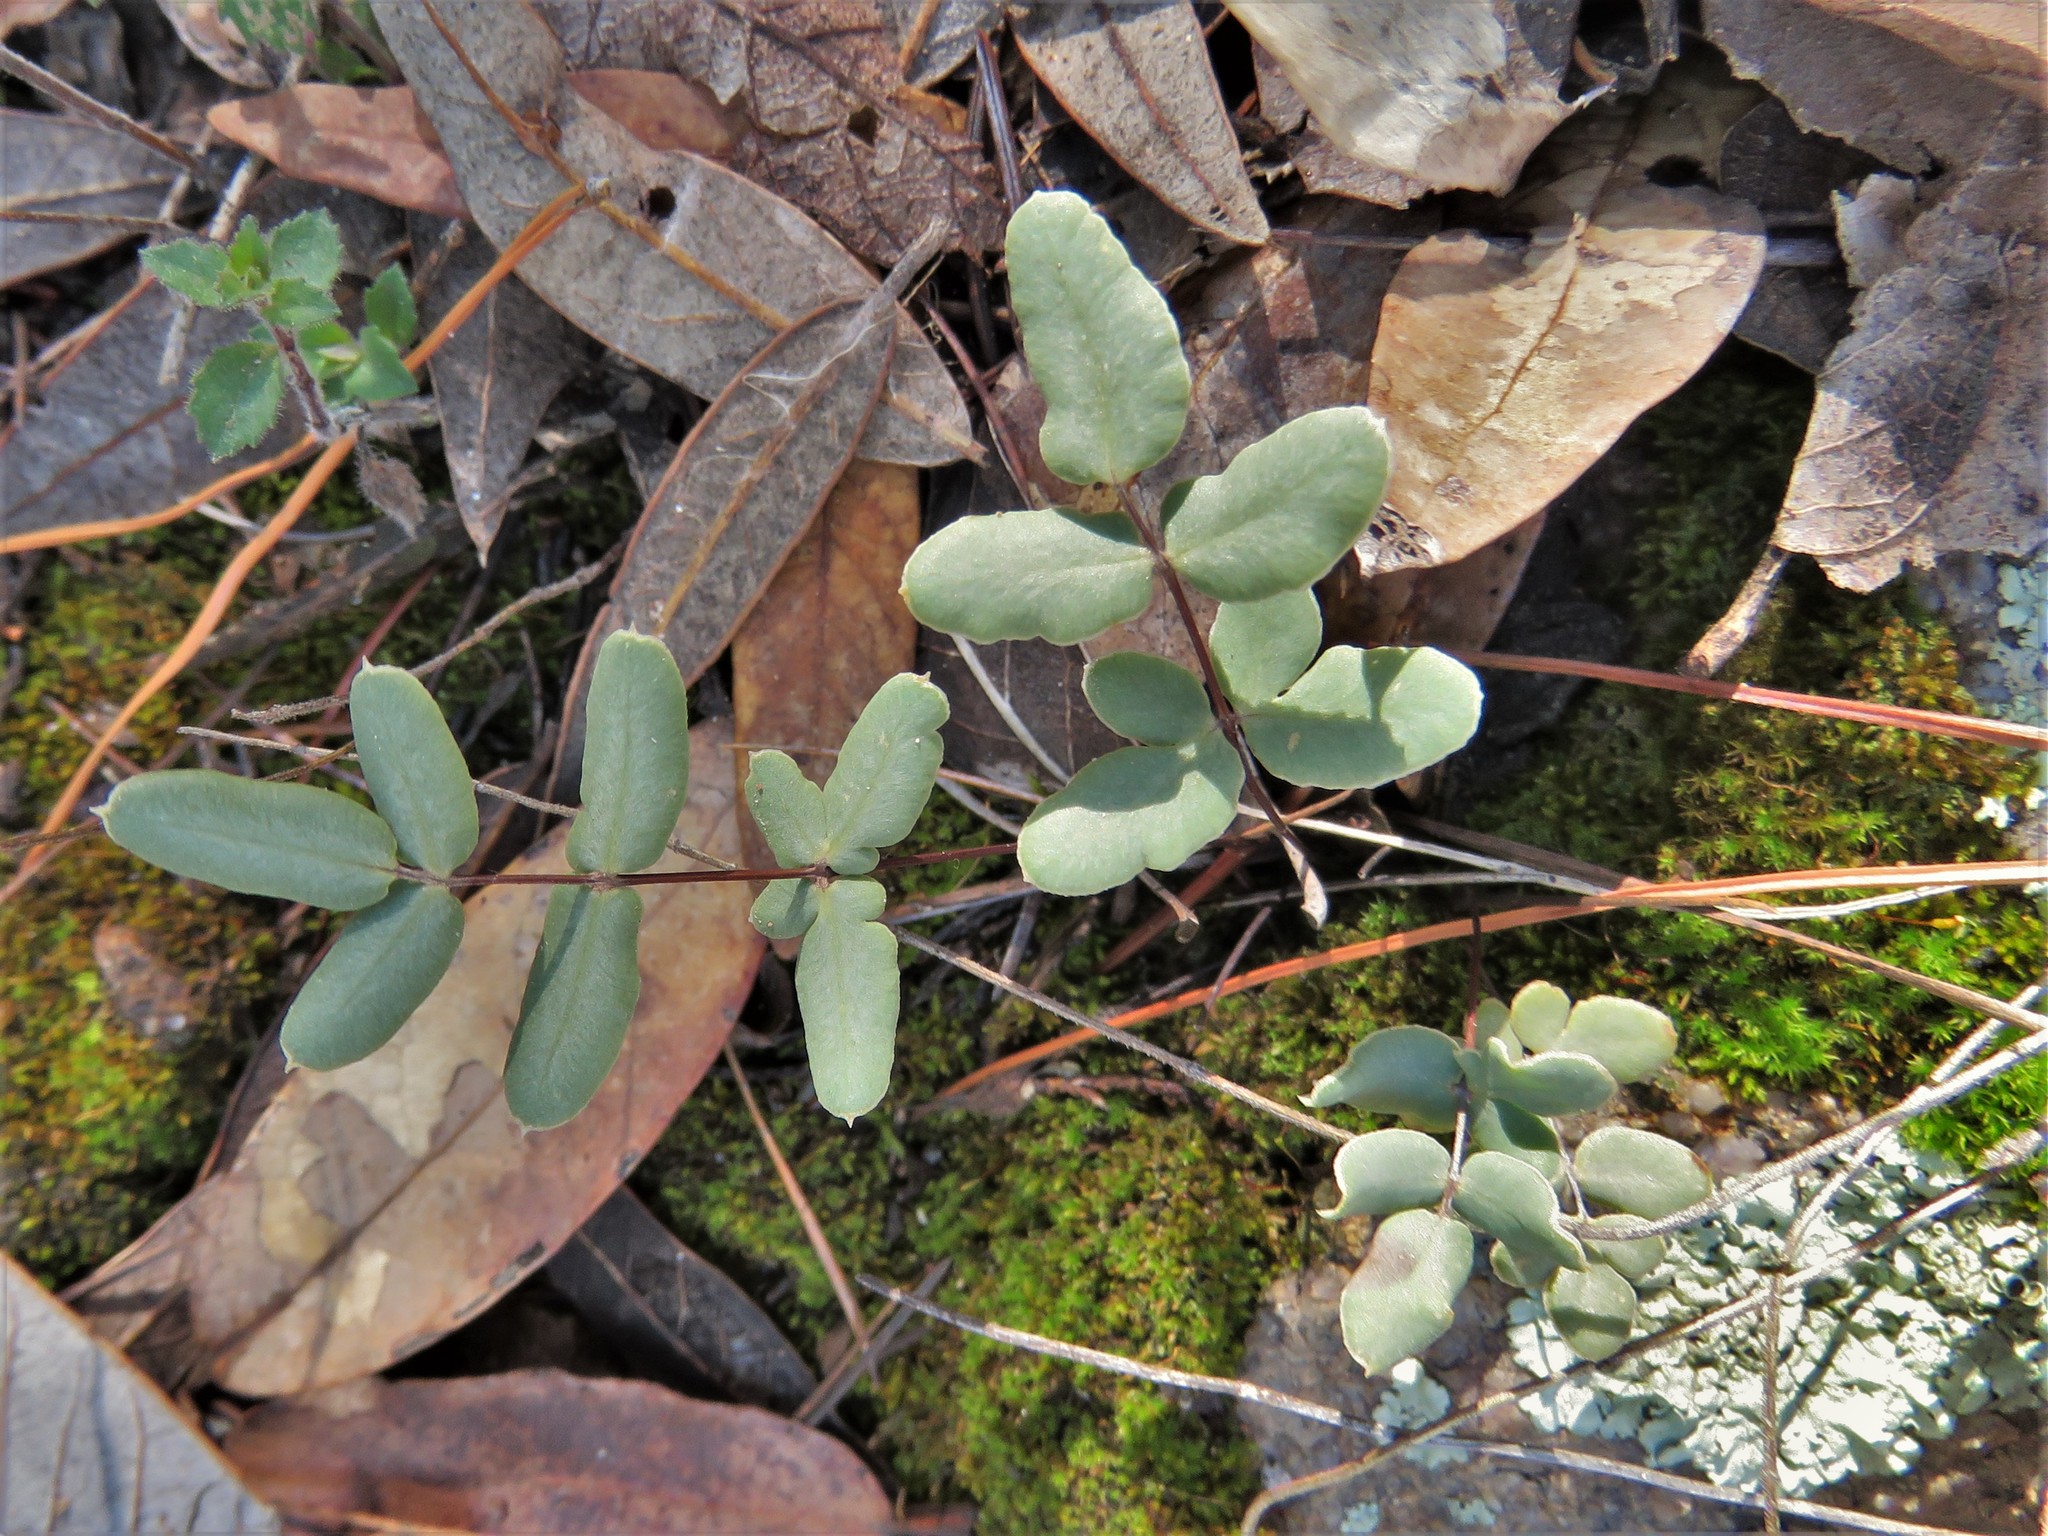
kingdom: Plantae
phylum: Tracheophyta
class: Polypodiopsida
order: Polypodiales
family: Pteridaceae
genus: Pellaea
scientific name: Pellaea wrightiana
